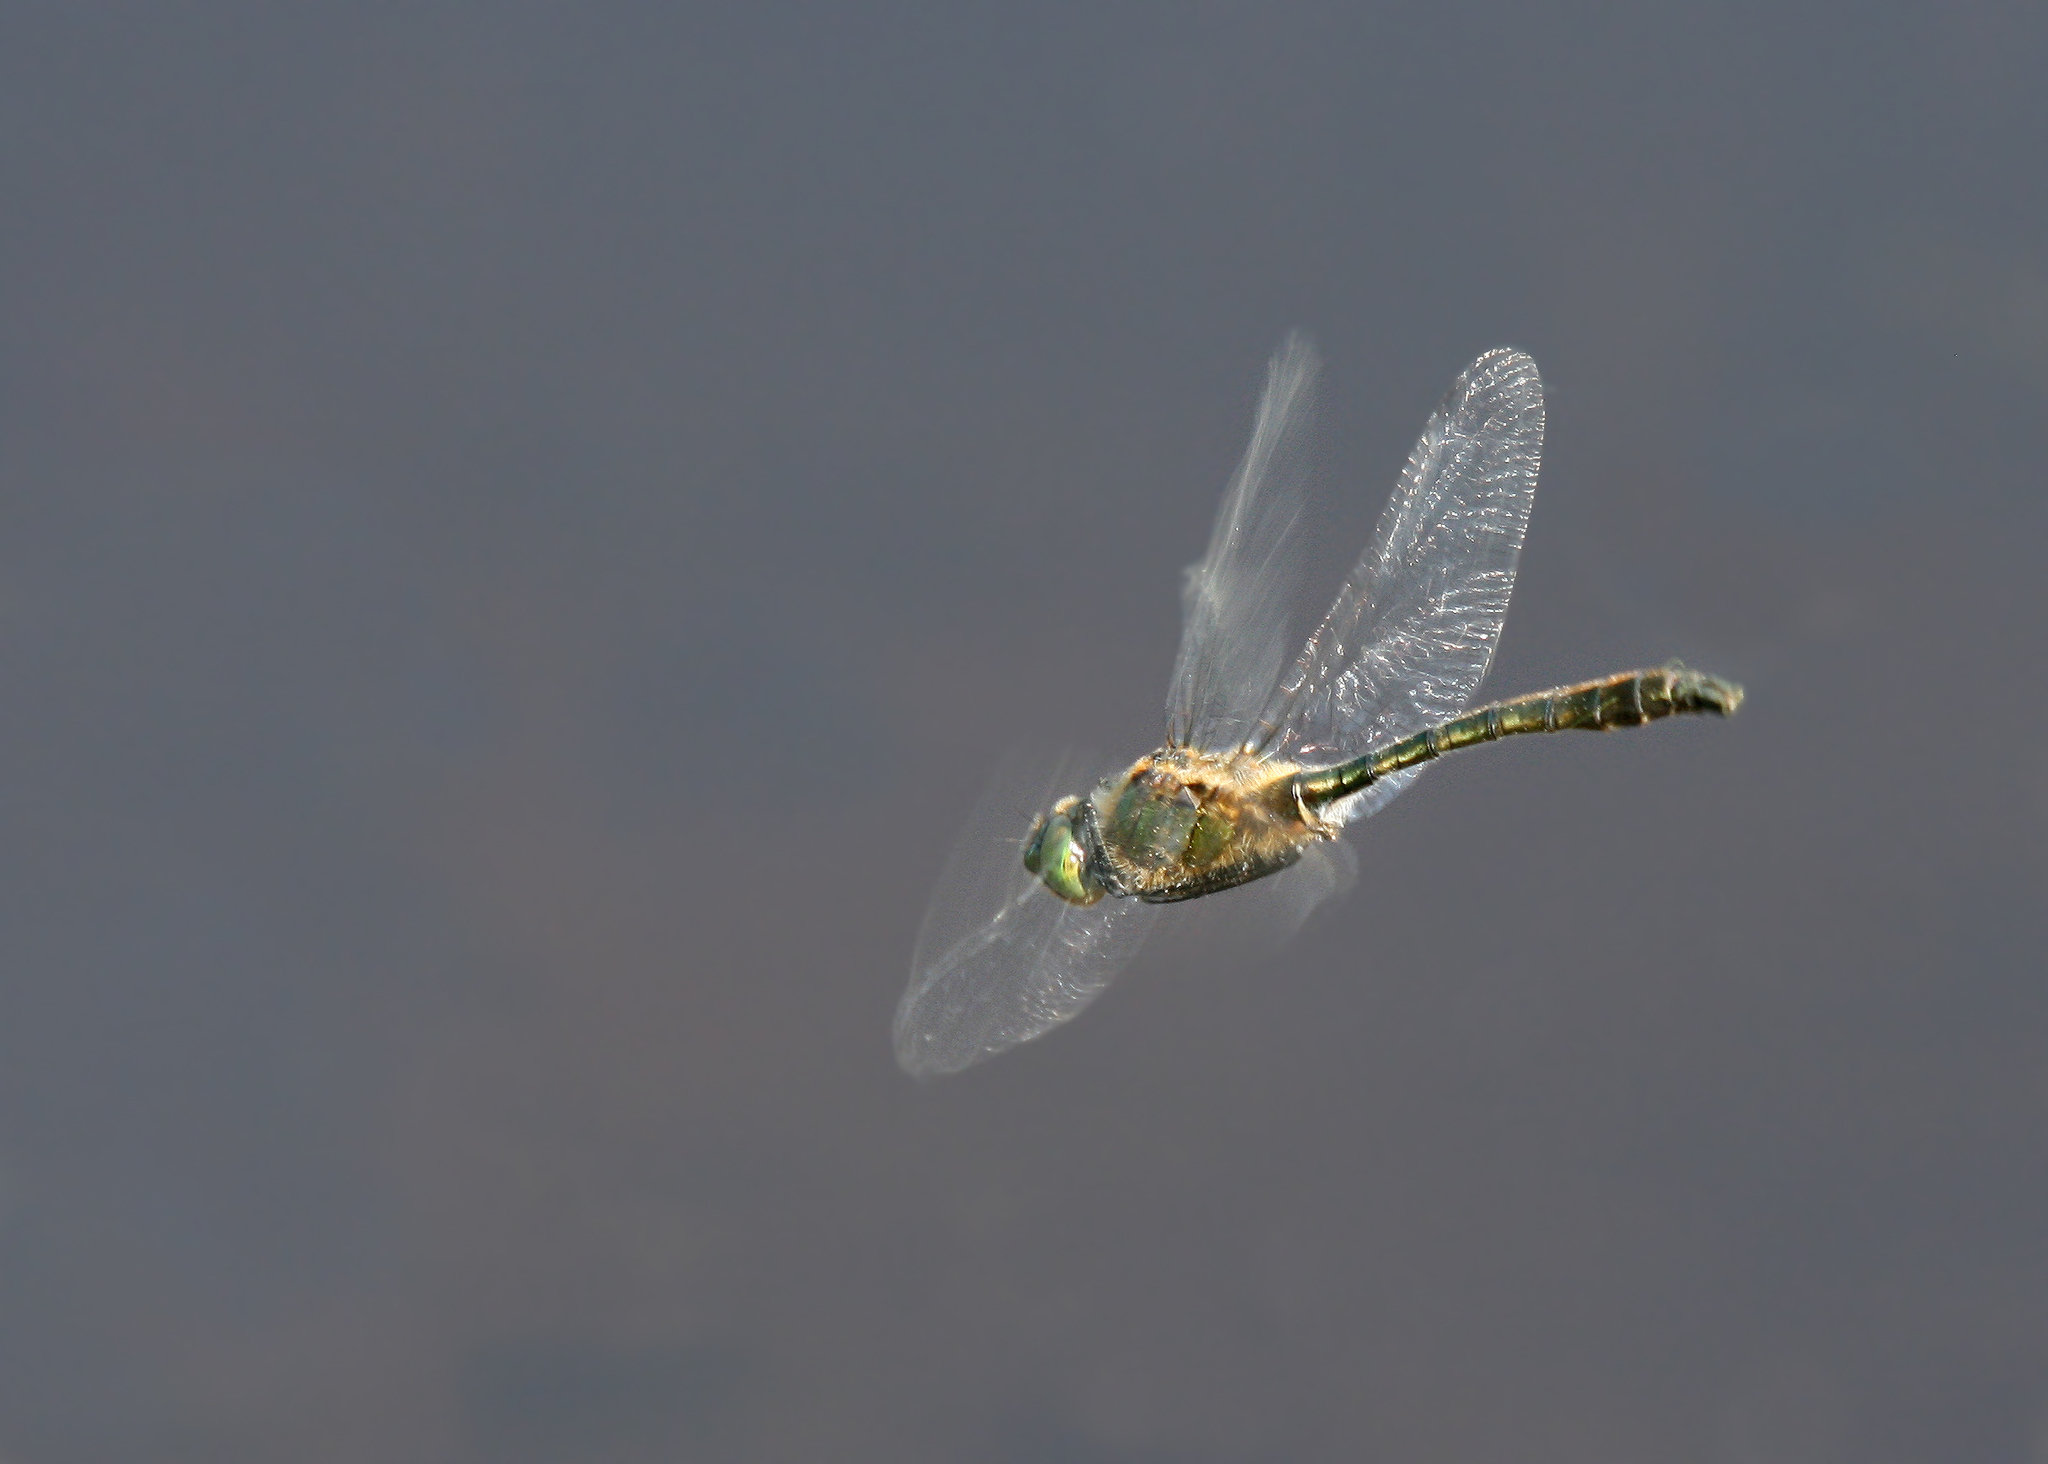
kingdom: Animalia
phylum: Arthropoda
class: Insecta
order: Odonata
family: Corduliidae
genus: Cordulia
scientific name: Cordulia aenea
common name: Downy emerald
